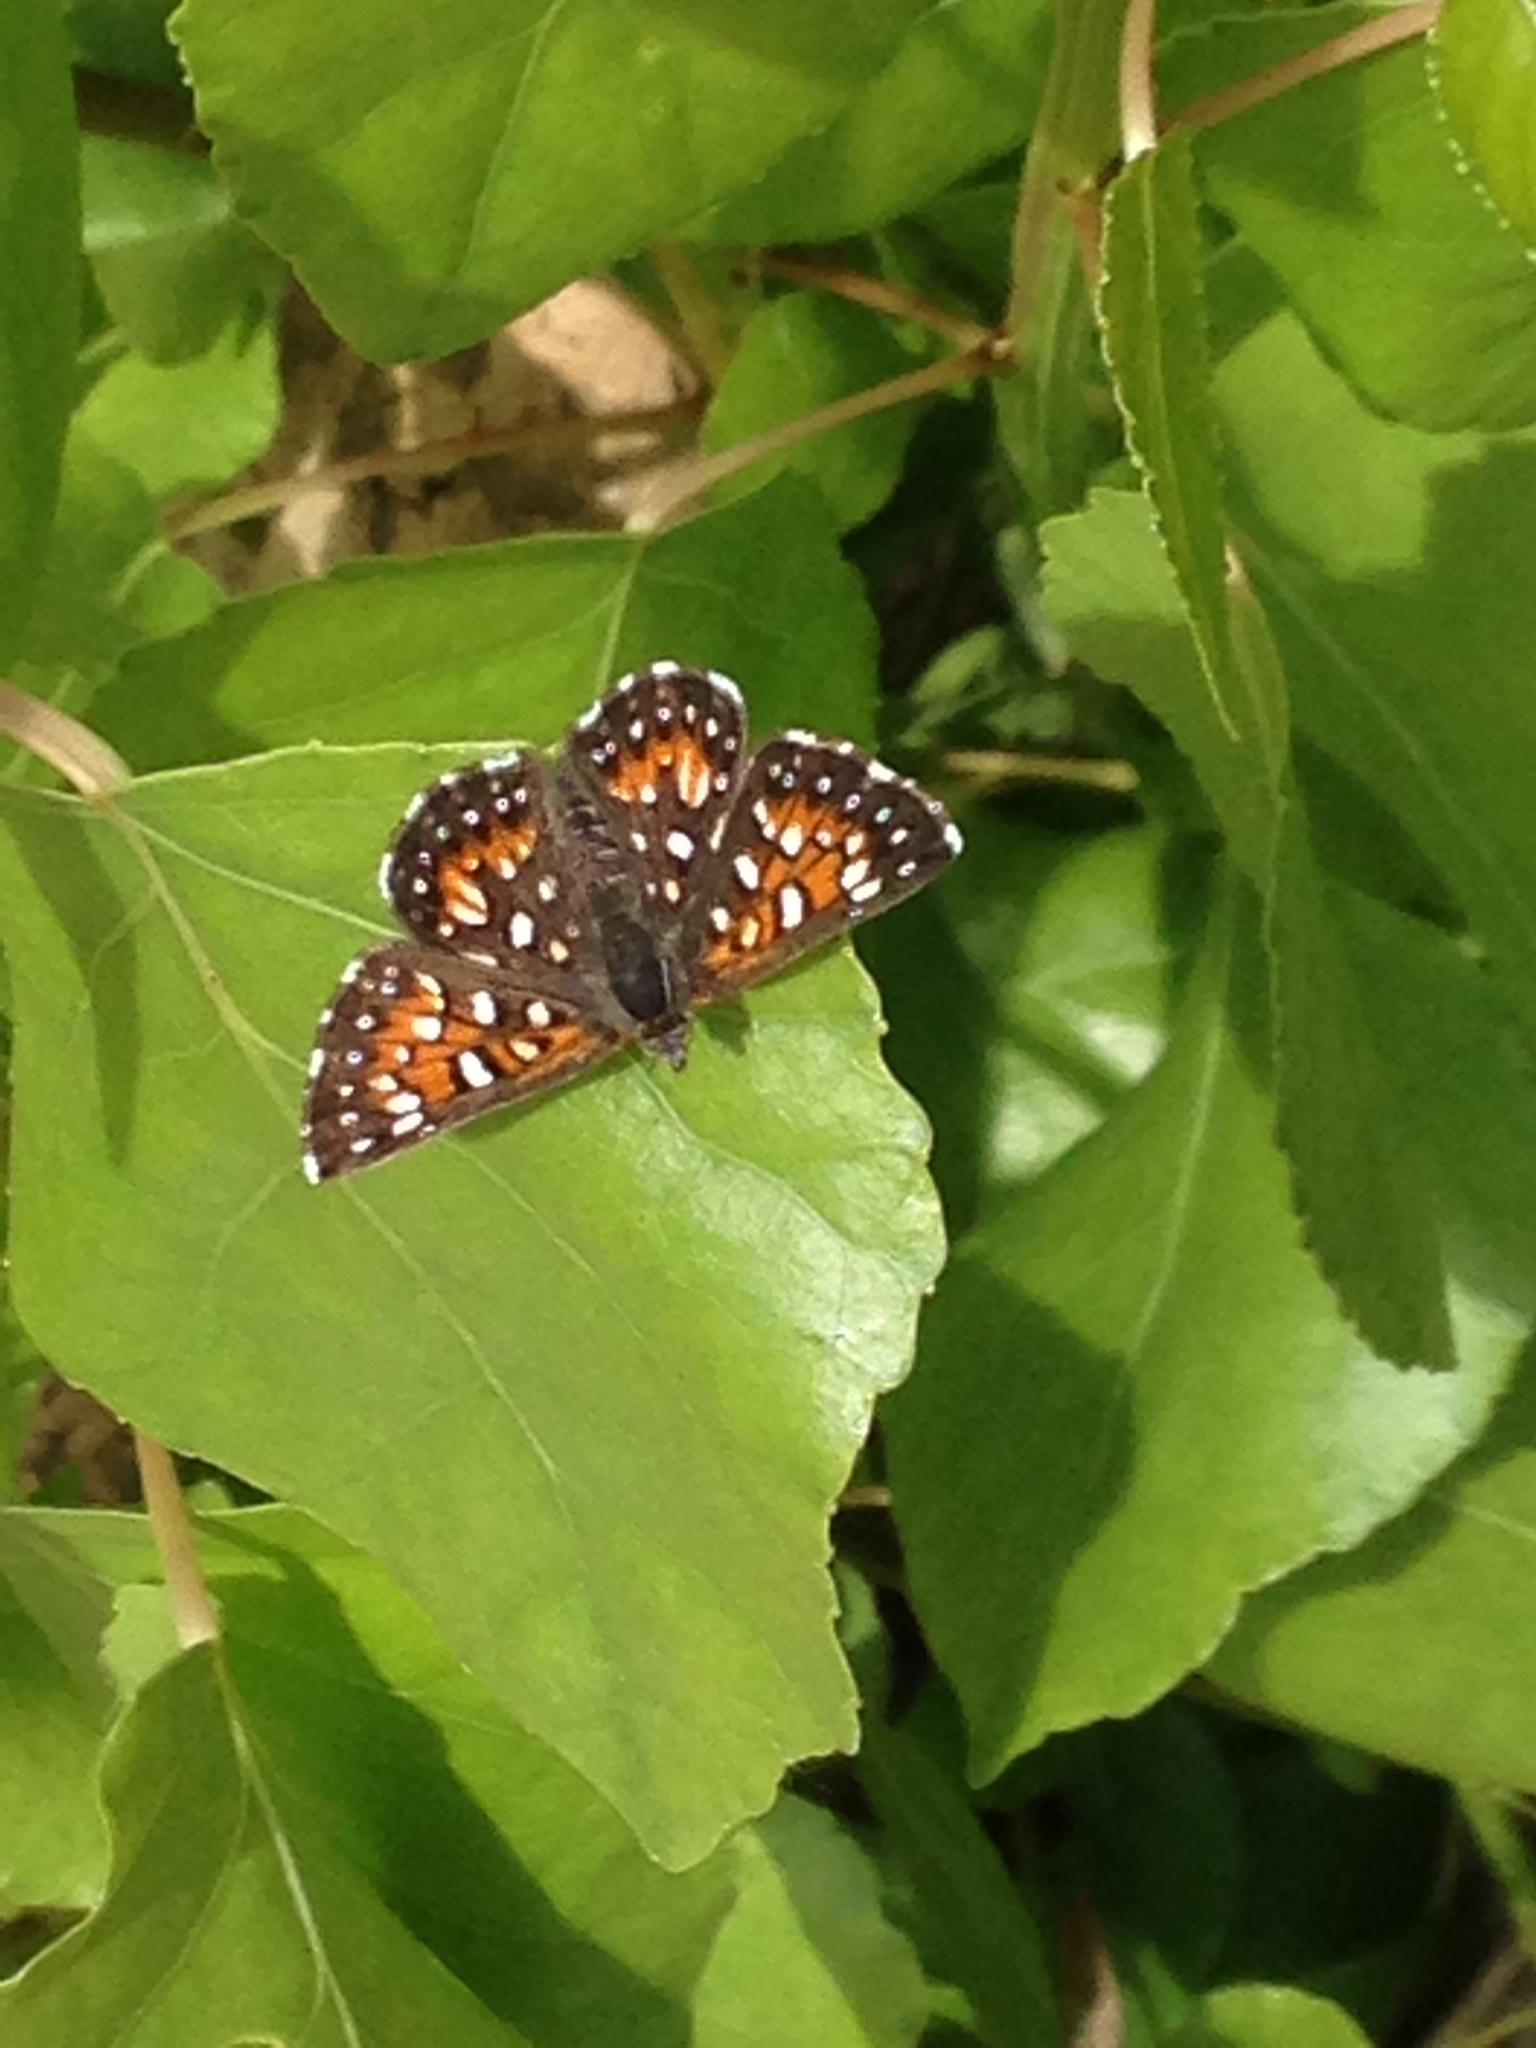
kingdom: Animalia
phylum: Arthropoda
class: Insecta
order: Lepidoptera
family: Riodinidae
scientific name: Riodinidae
